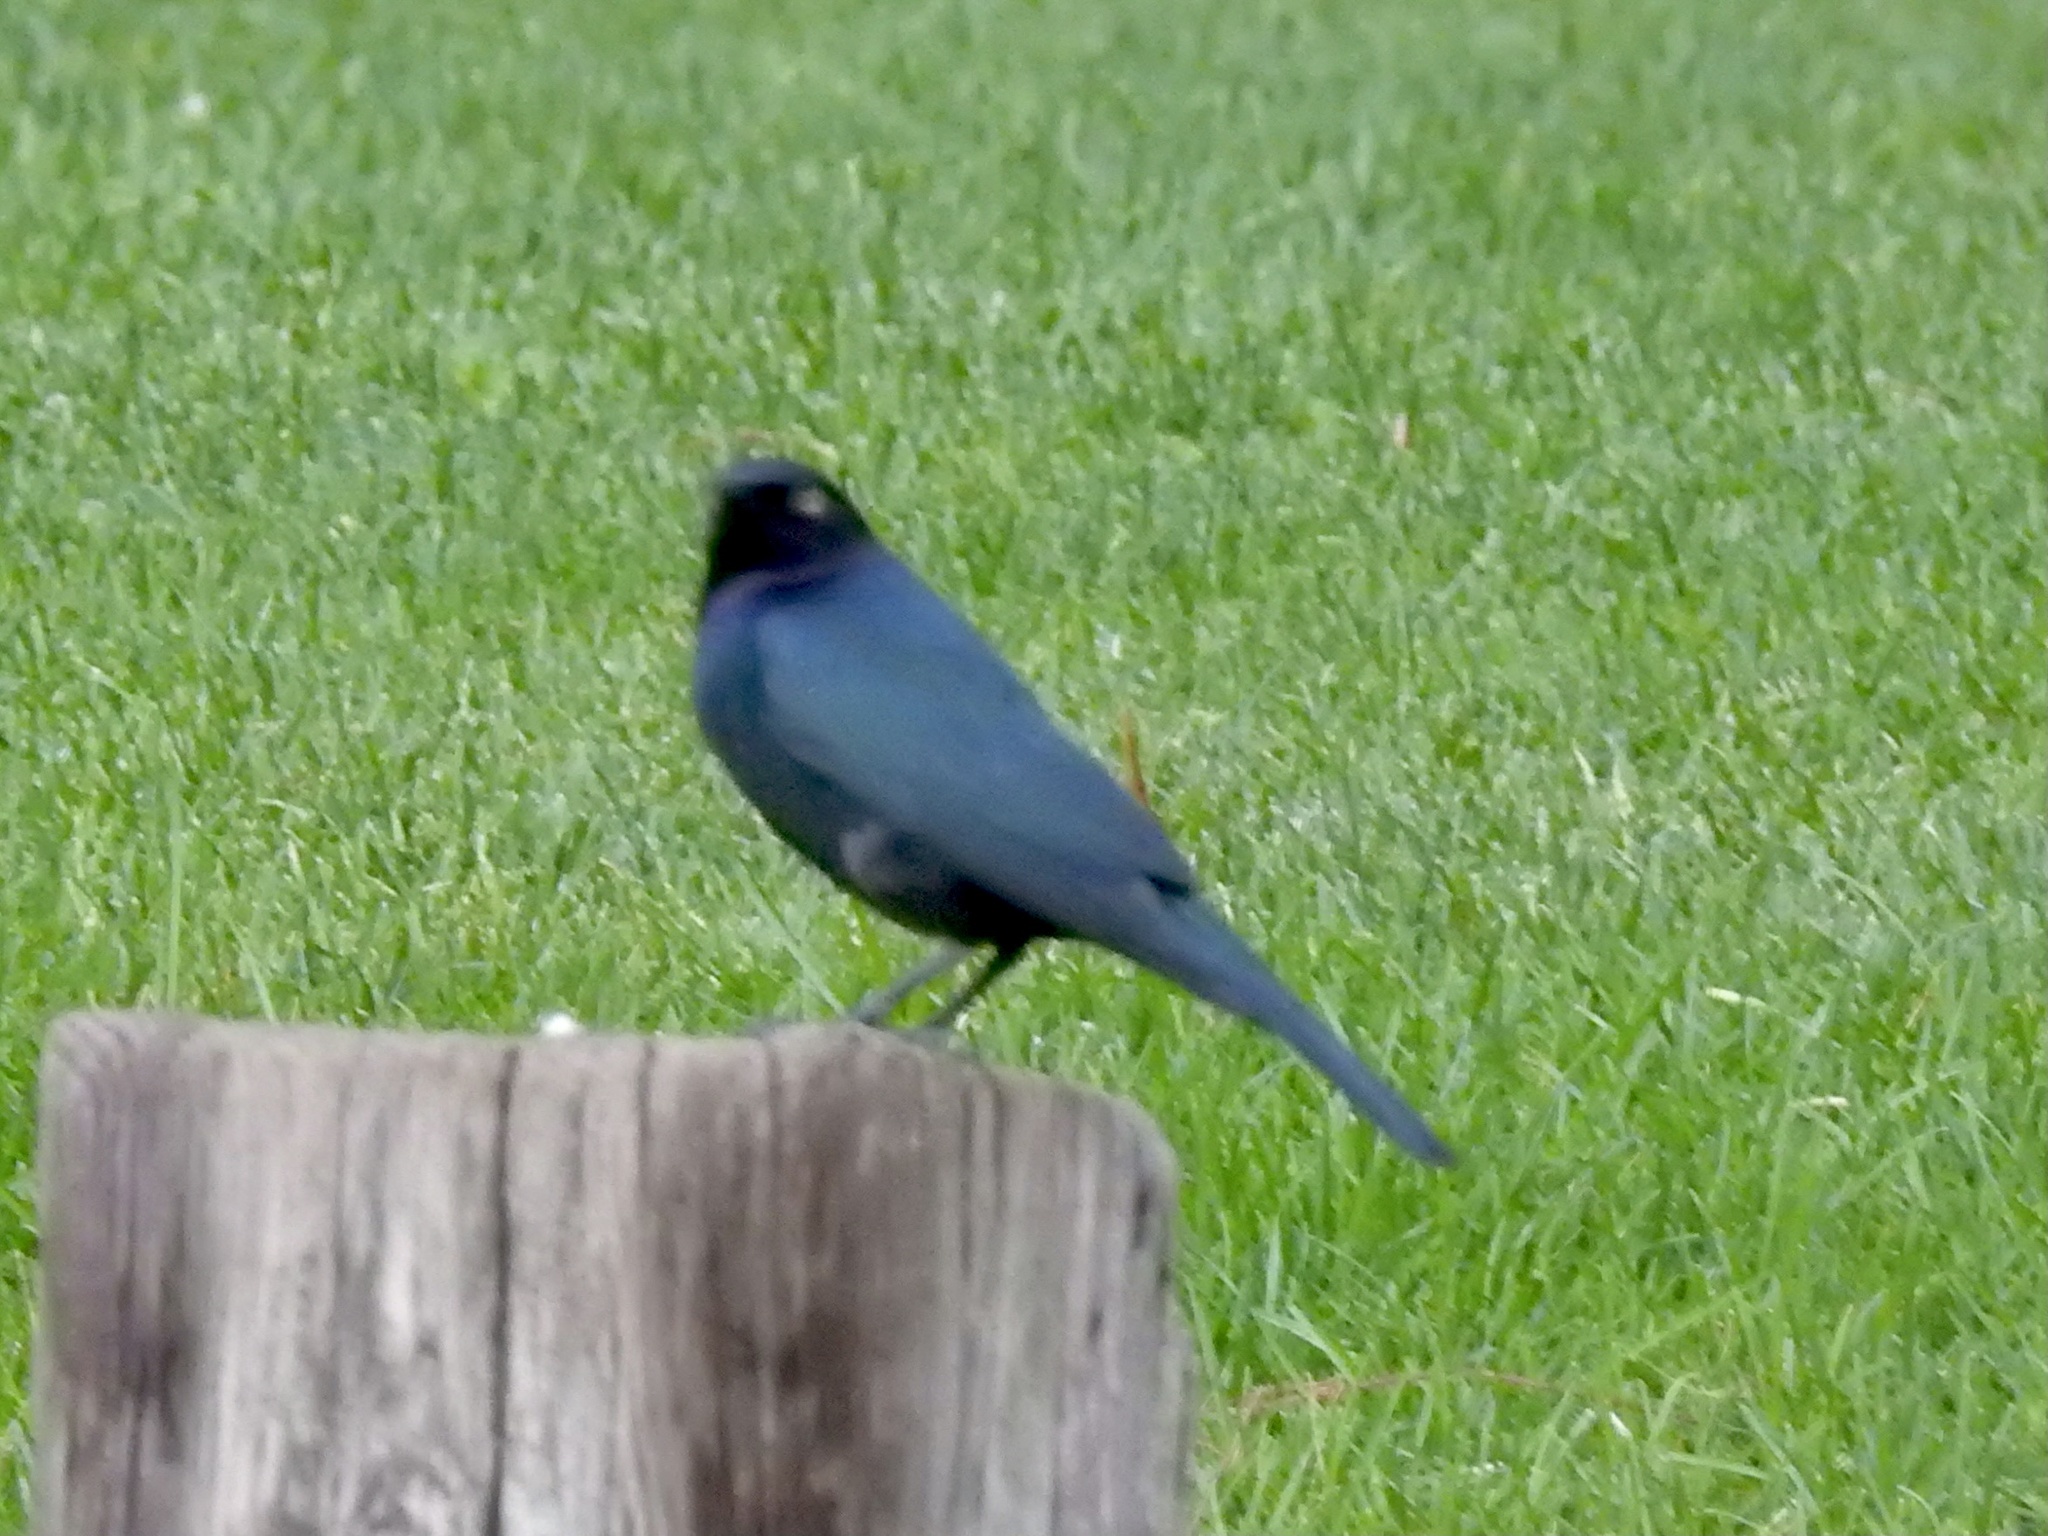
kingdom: Animalia
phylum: Chordata
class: Aves
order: Passeriformes
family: Icteridae
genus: Euphagus
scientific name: Euphagus cyanocephalus
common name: Brewer's blackbird
